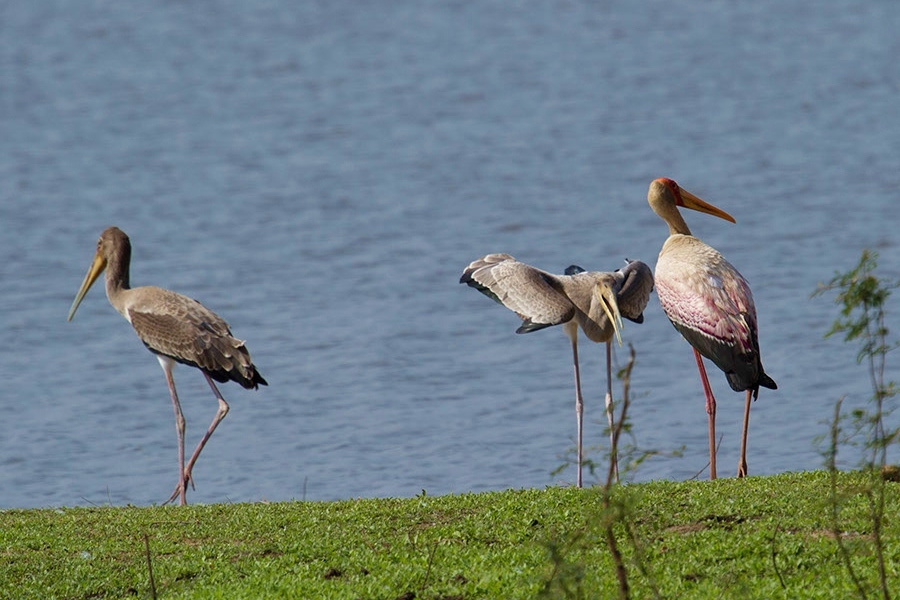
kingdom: Animalia
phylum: Chordata
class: Aves
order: Ciconiiformes
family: Ciconiidae
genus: Mycteria
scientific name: Mycteria ibis
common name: Yellow-billed stork
